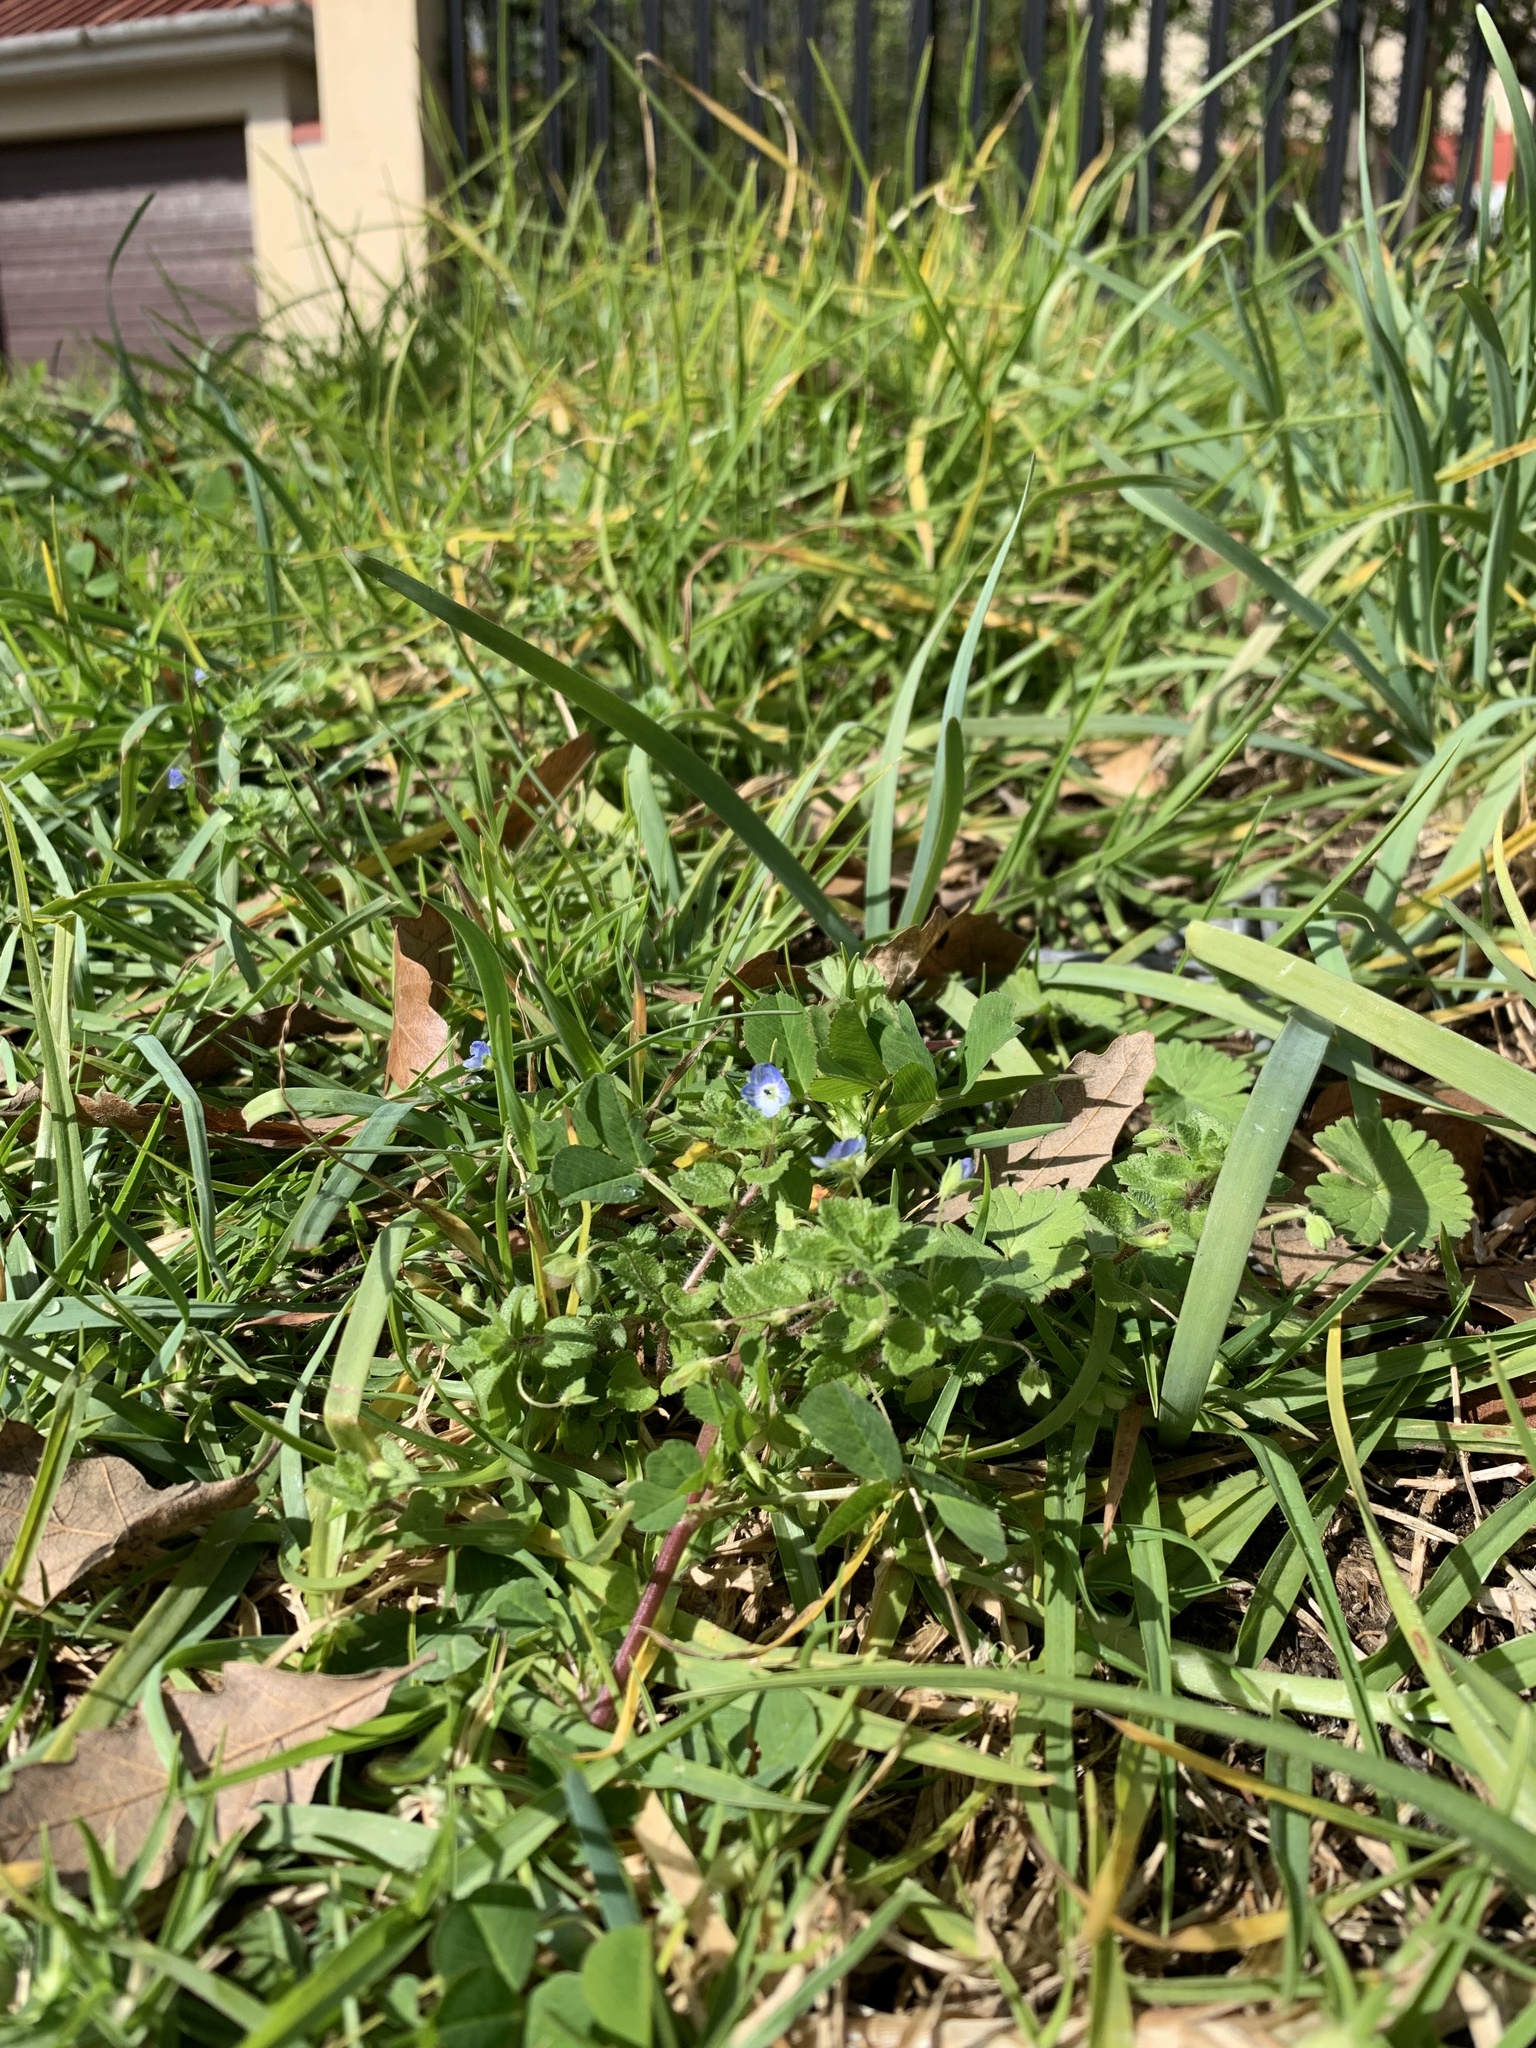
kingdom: Plantae
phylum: Tracheophyta
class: Magnoliopsida
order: Lamiales
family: Plantaginaceae
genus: Veronica
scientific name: Veronica persica
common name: Common field-speedwell
